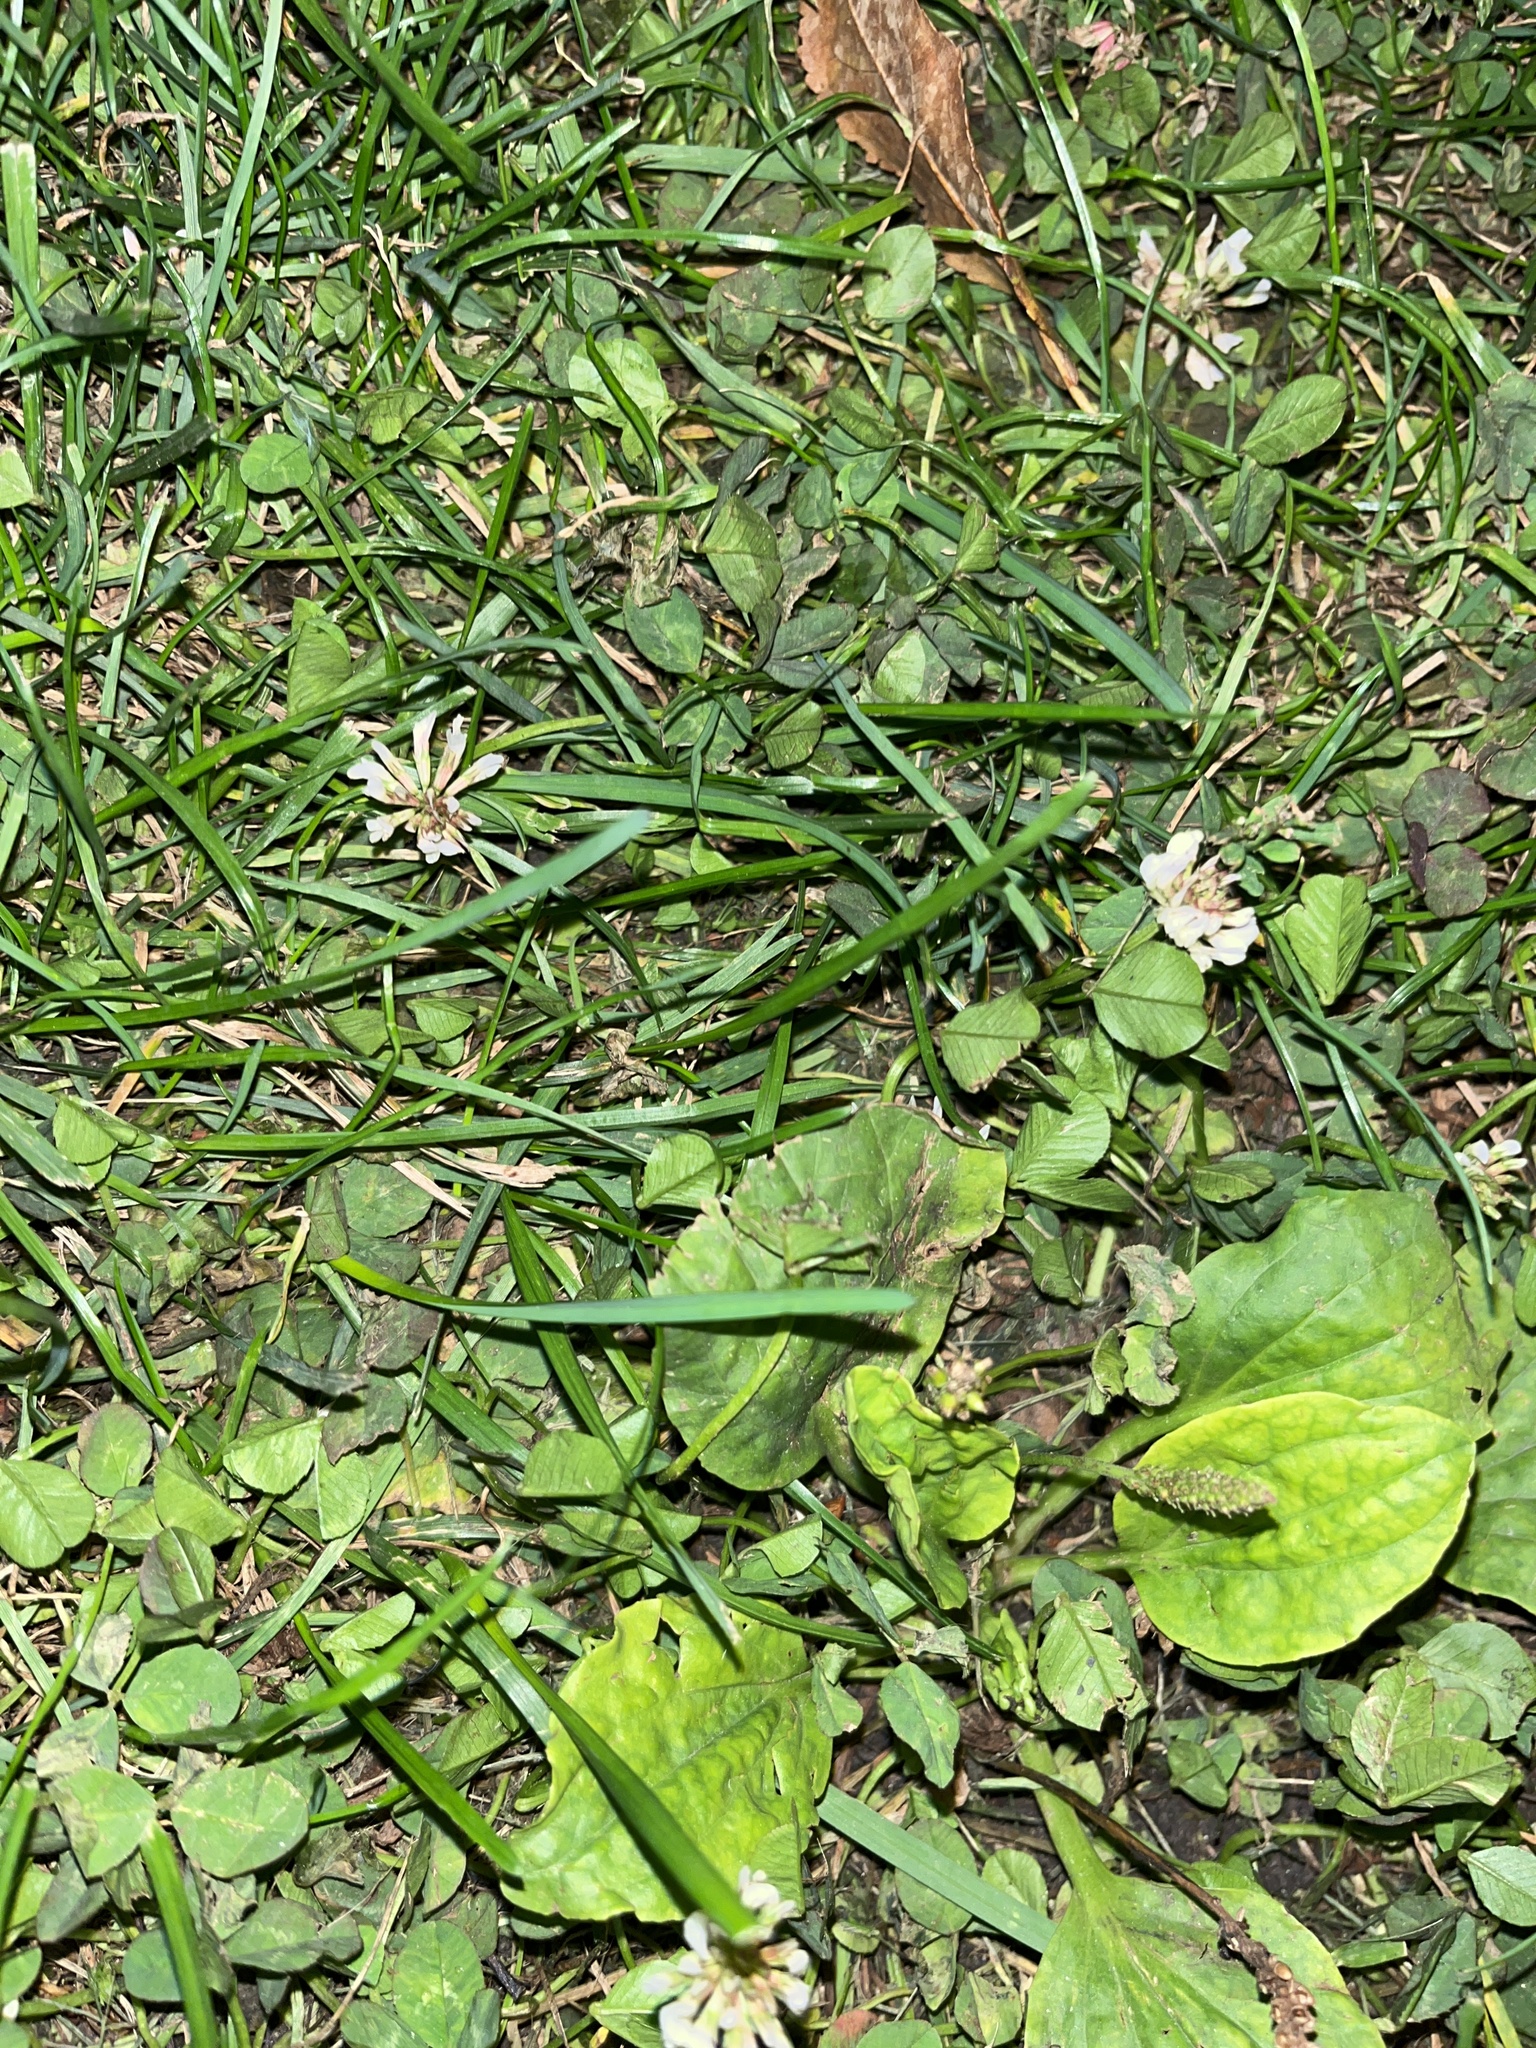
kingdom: Plantae
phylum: Tracheophyta
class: Magnoliopsida
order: Fabales
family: Fabaceae
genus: Trifolium
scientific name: Trifolium repens
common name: White clover
